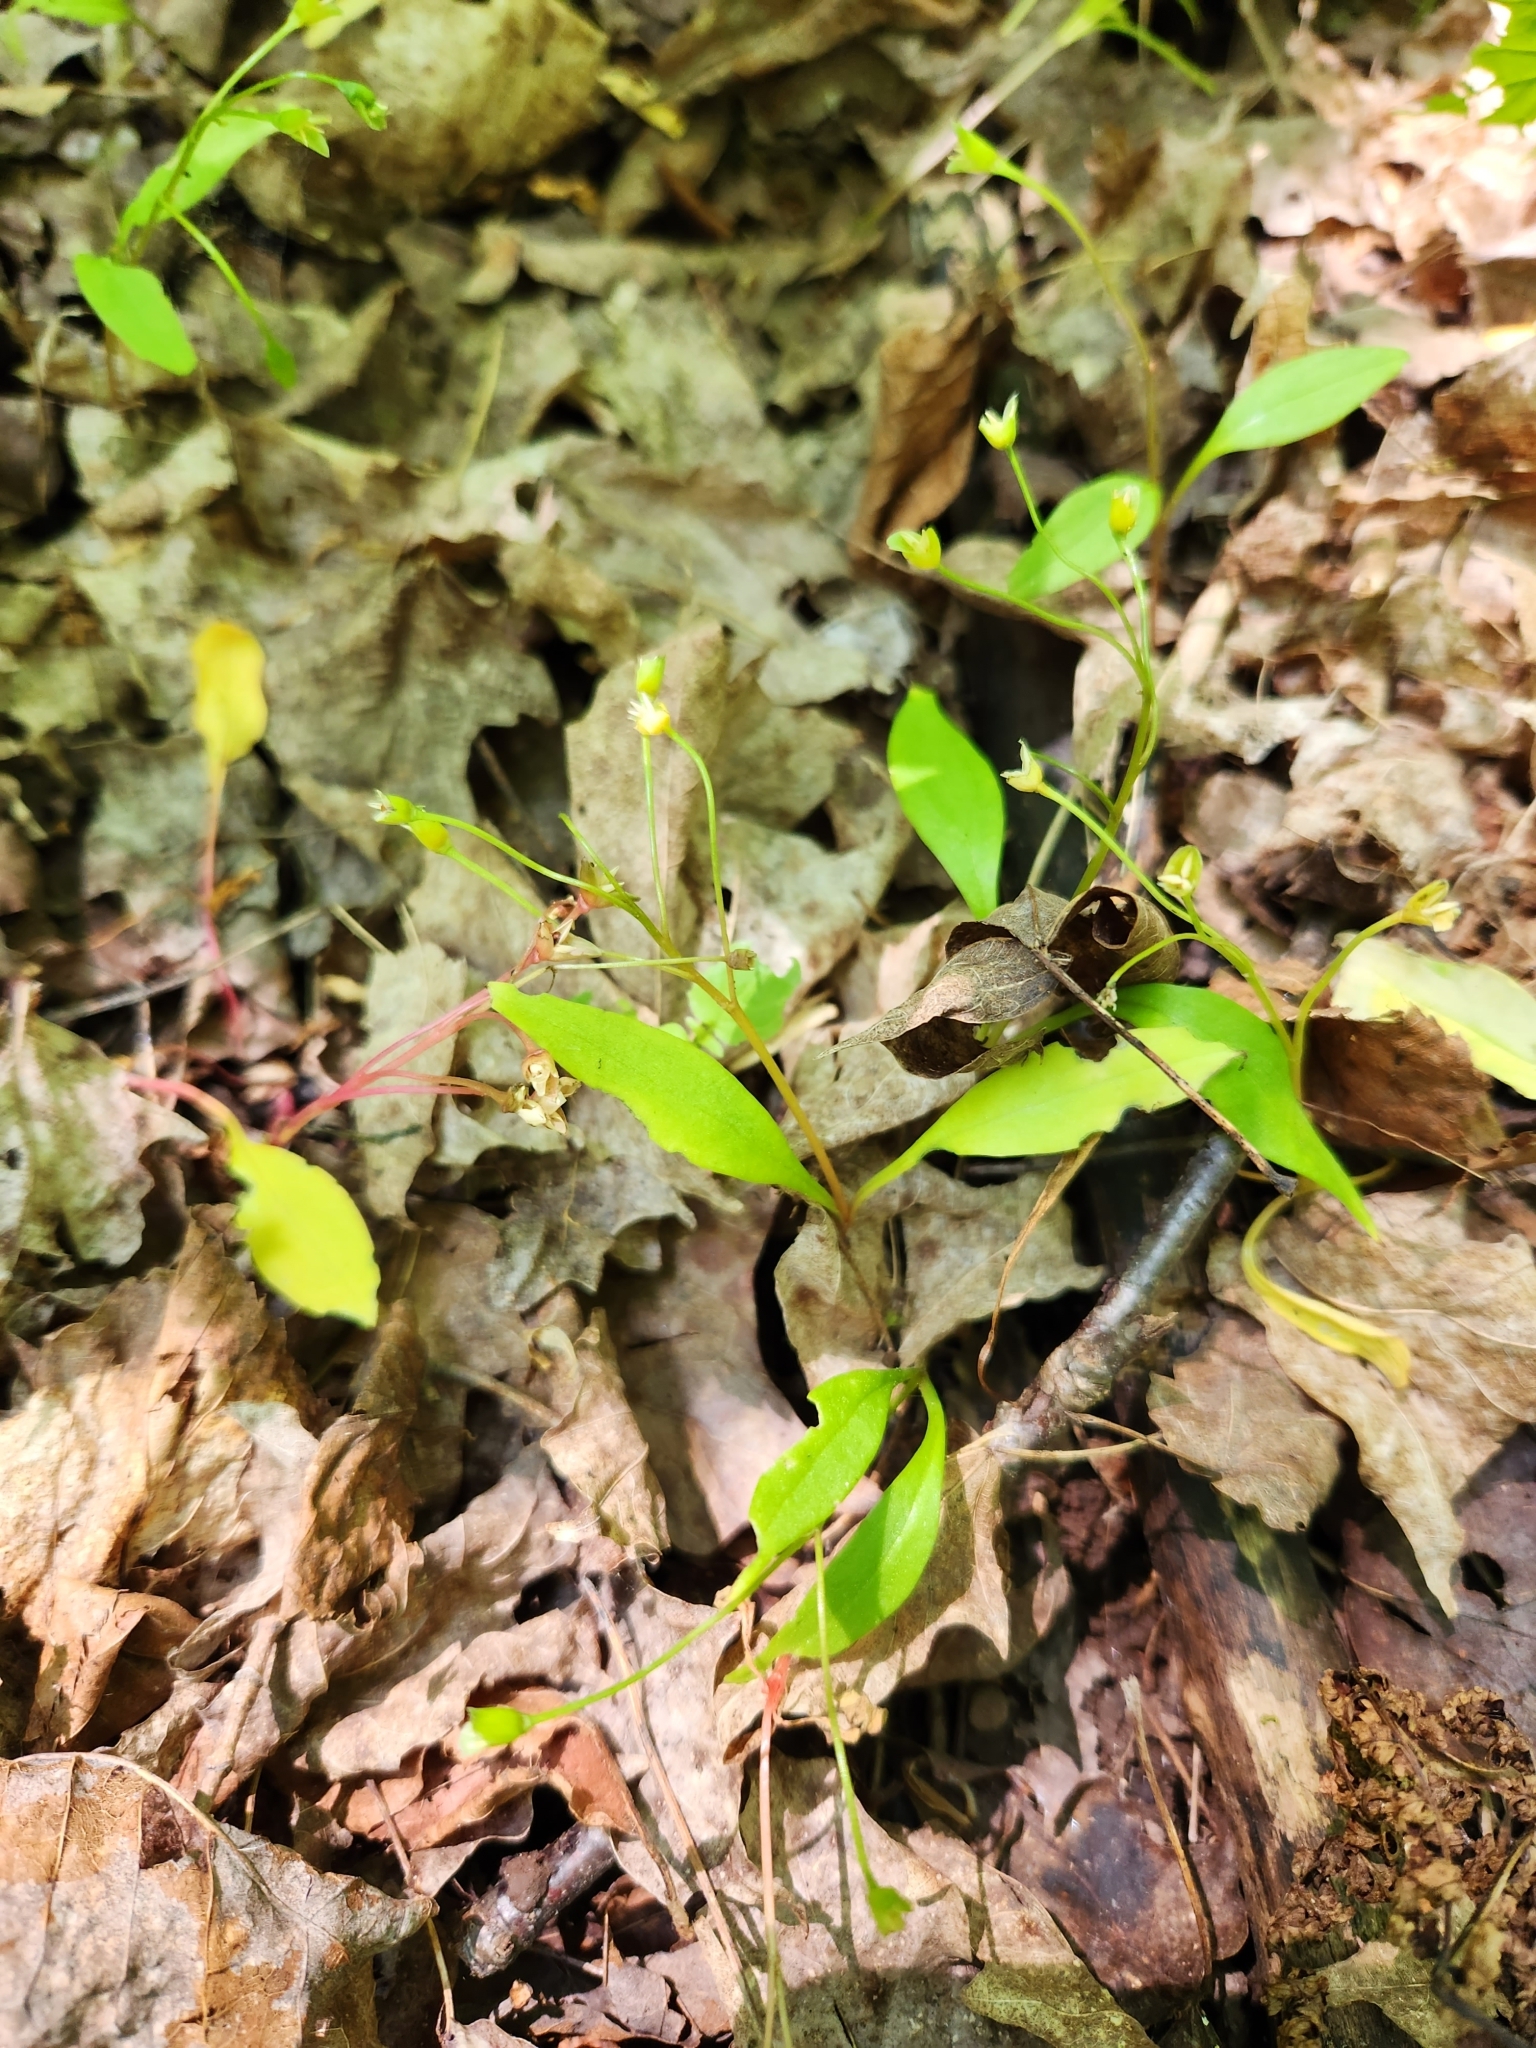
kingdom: Plantae
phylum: Tracheophyta
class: Magnoliopsida
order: Caryophyllales
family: Montiaceae
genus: Claytonia
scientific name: Claytonia caroliniana
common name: Carolina spring beauty
